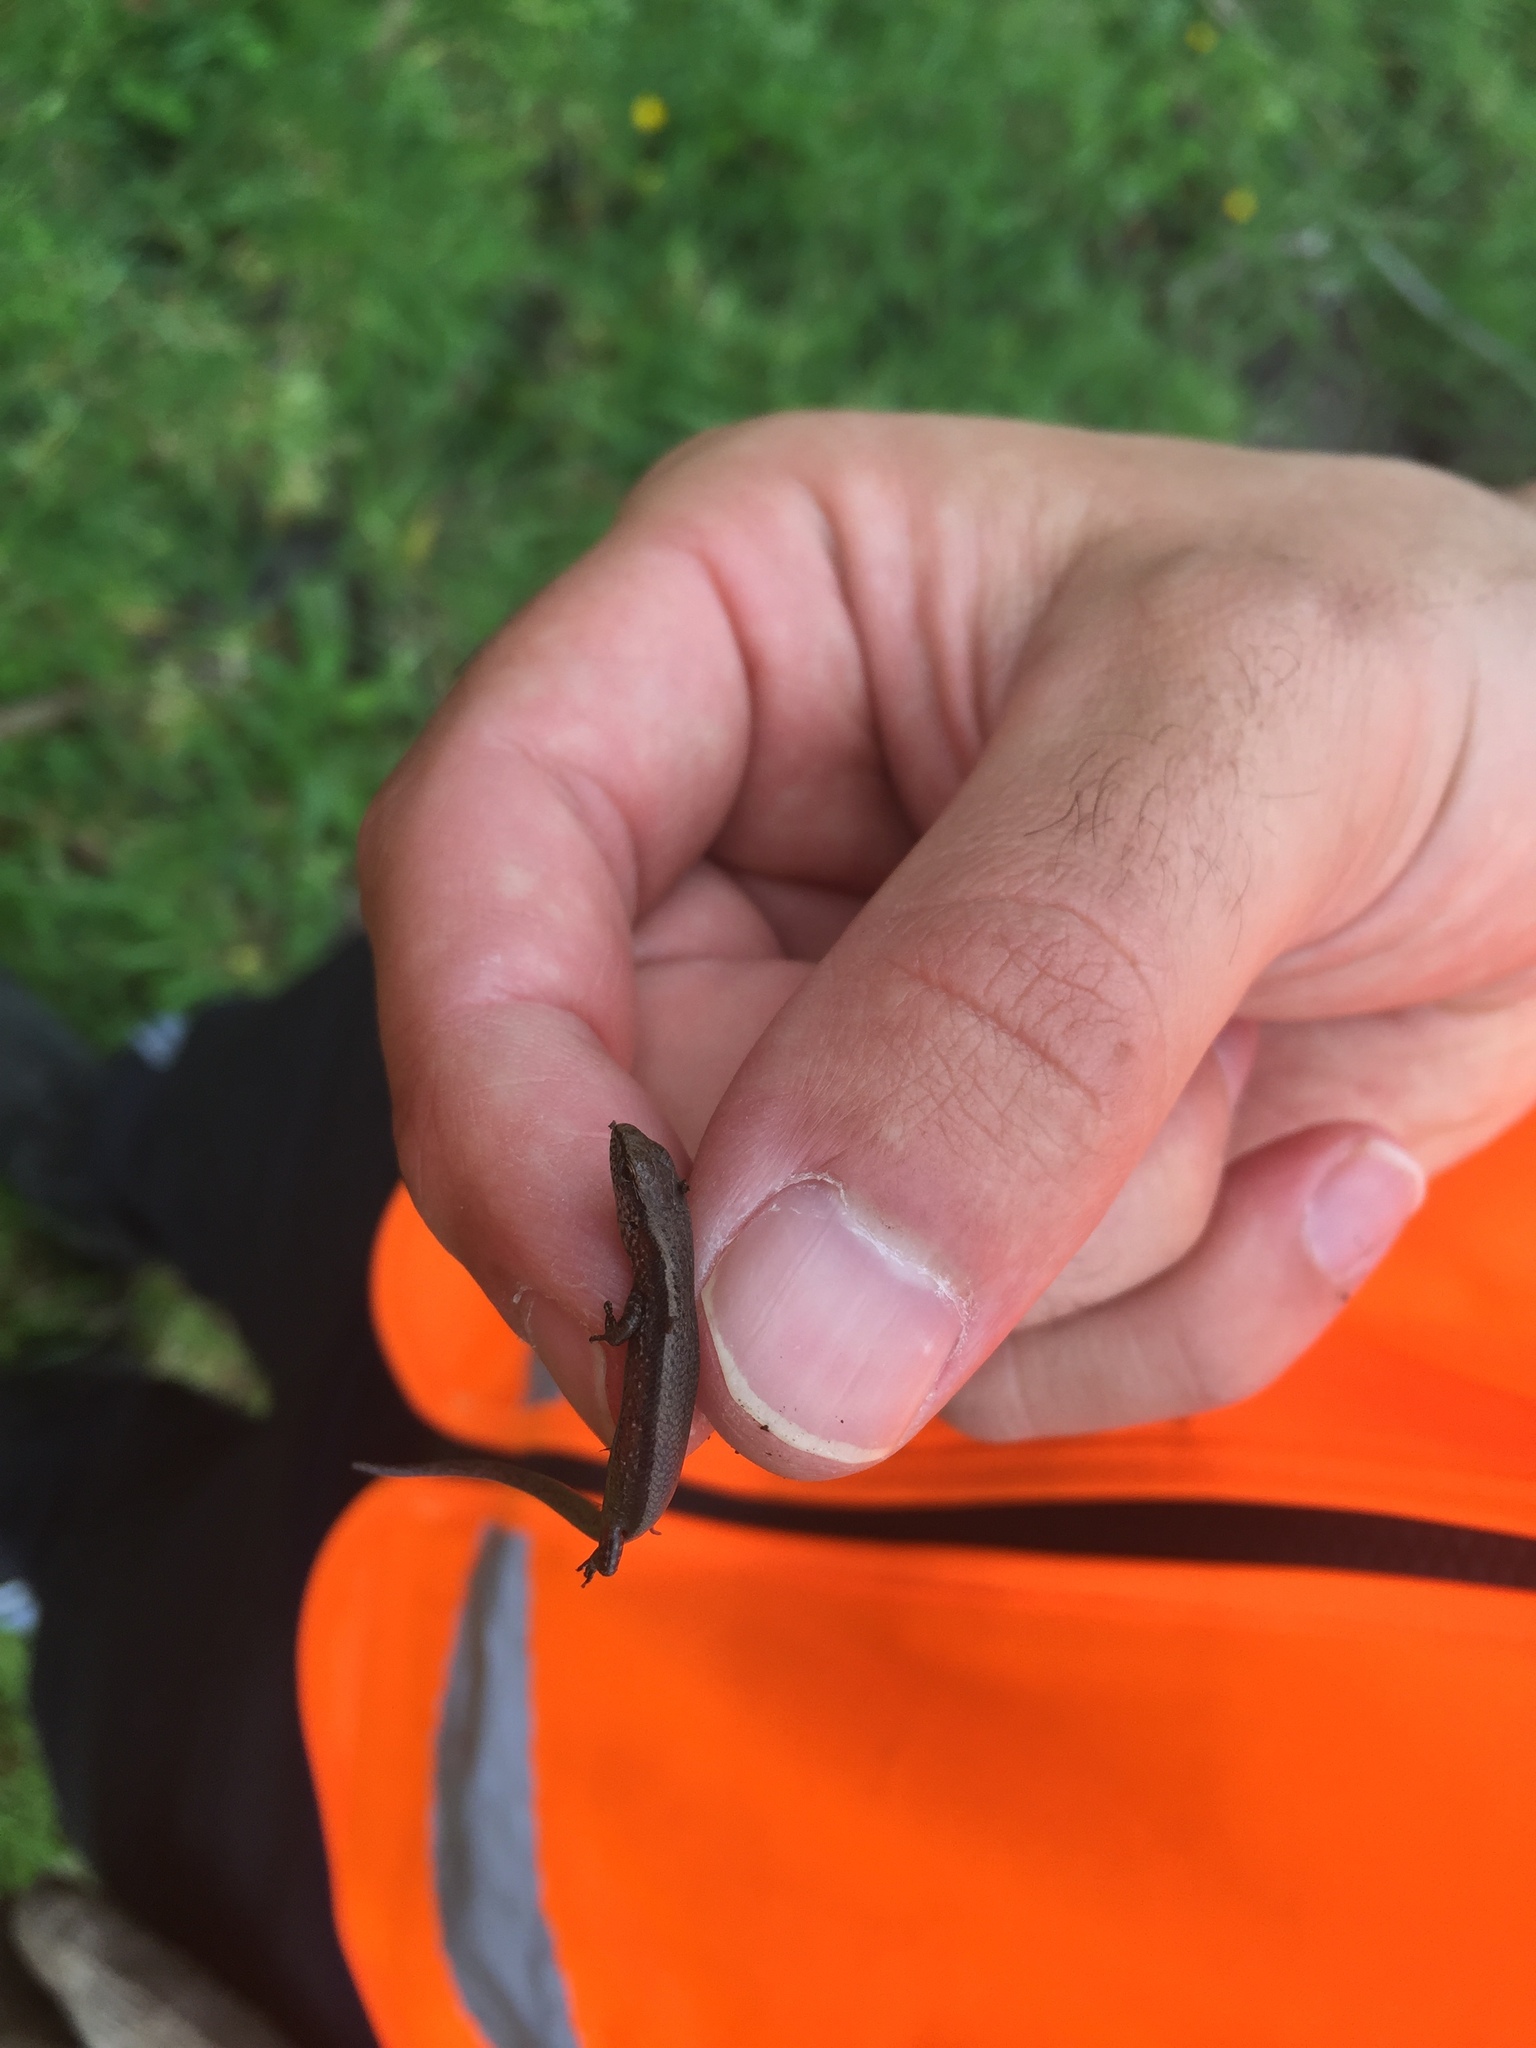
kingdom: Animalia
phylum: Chordata
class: Squamata
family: Scincidae
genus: Lampropholis
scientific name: Lampropholis delicata
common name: Plague skink
